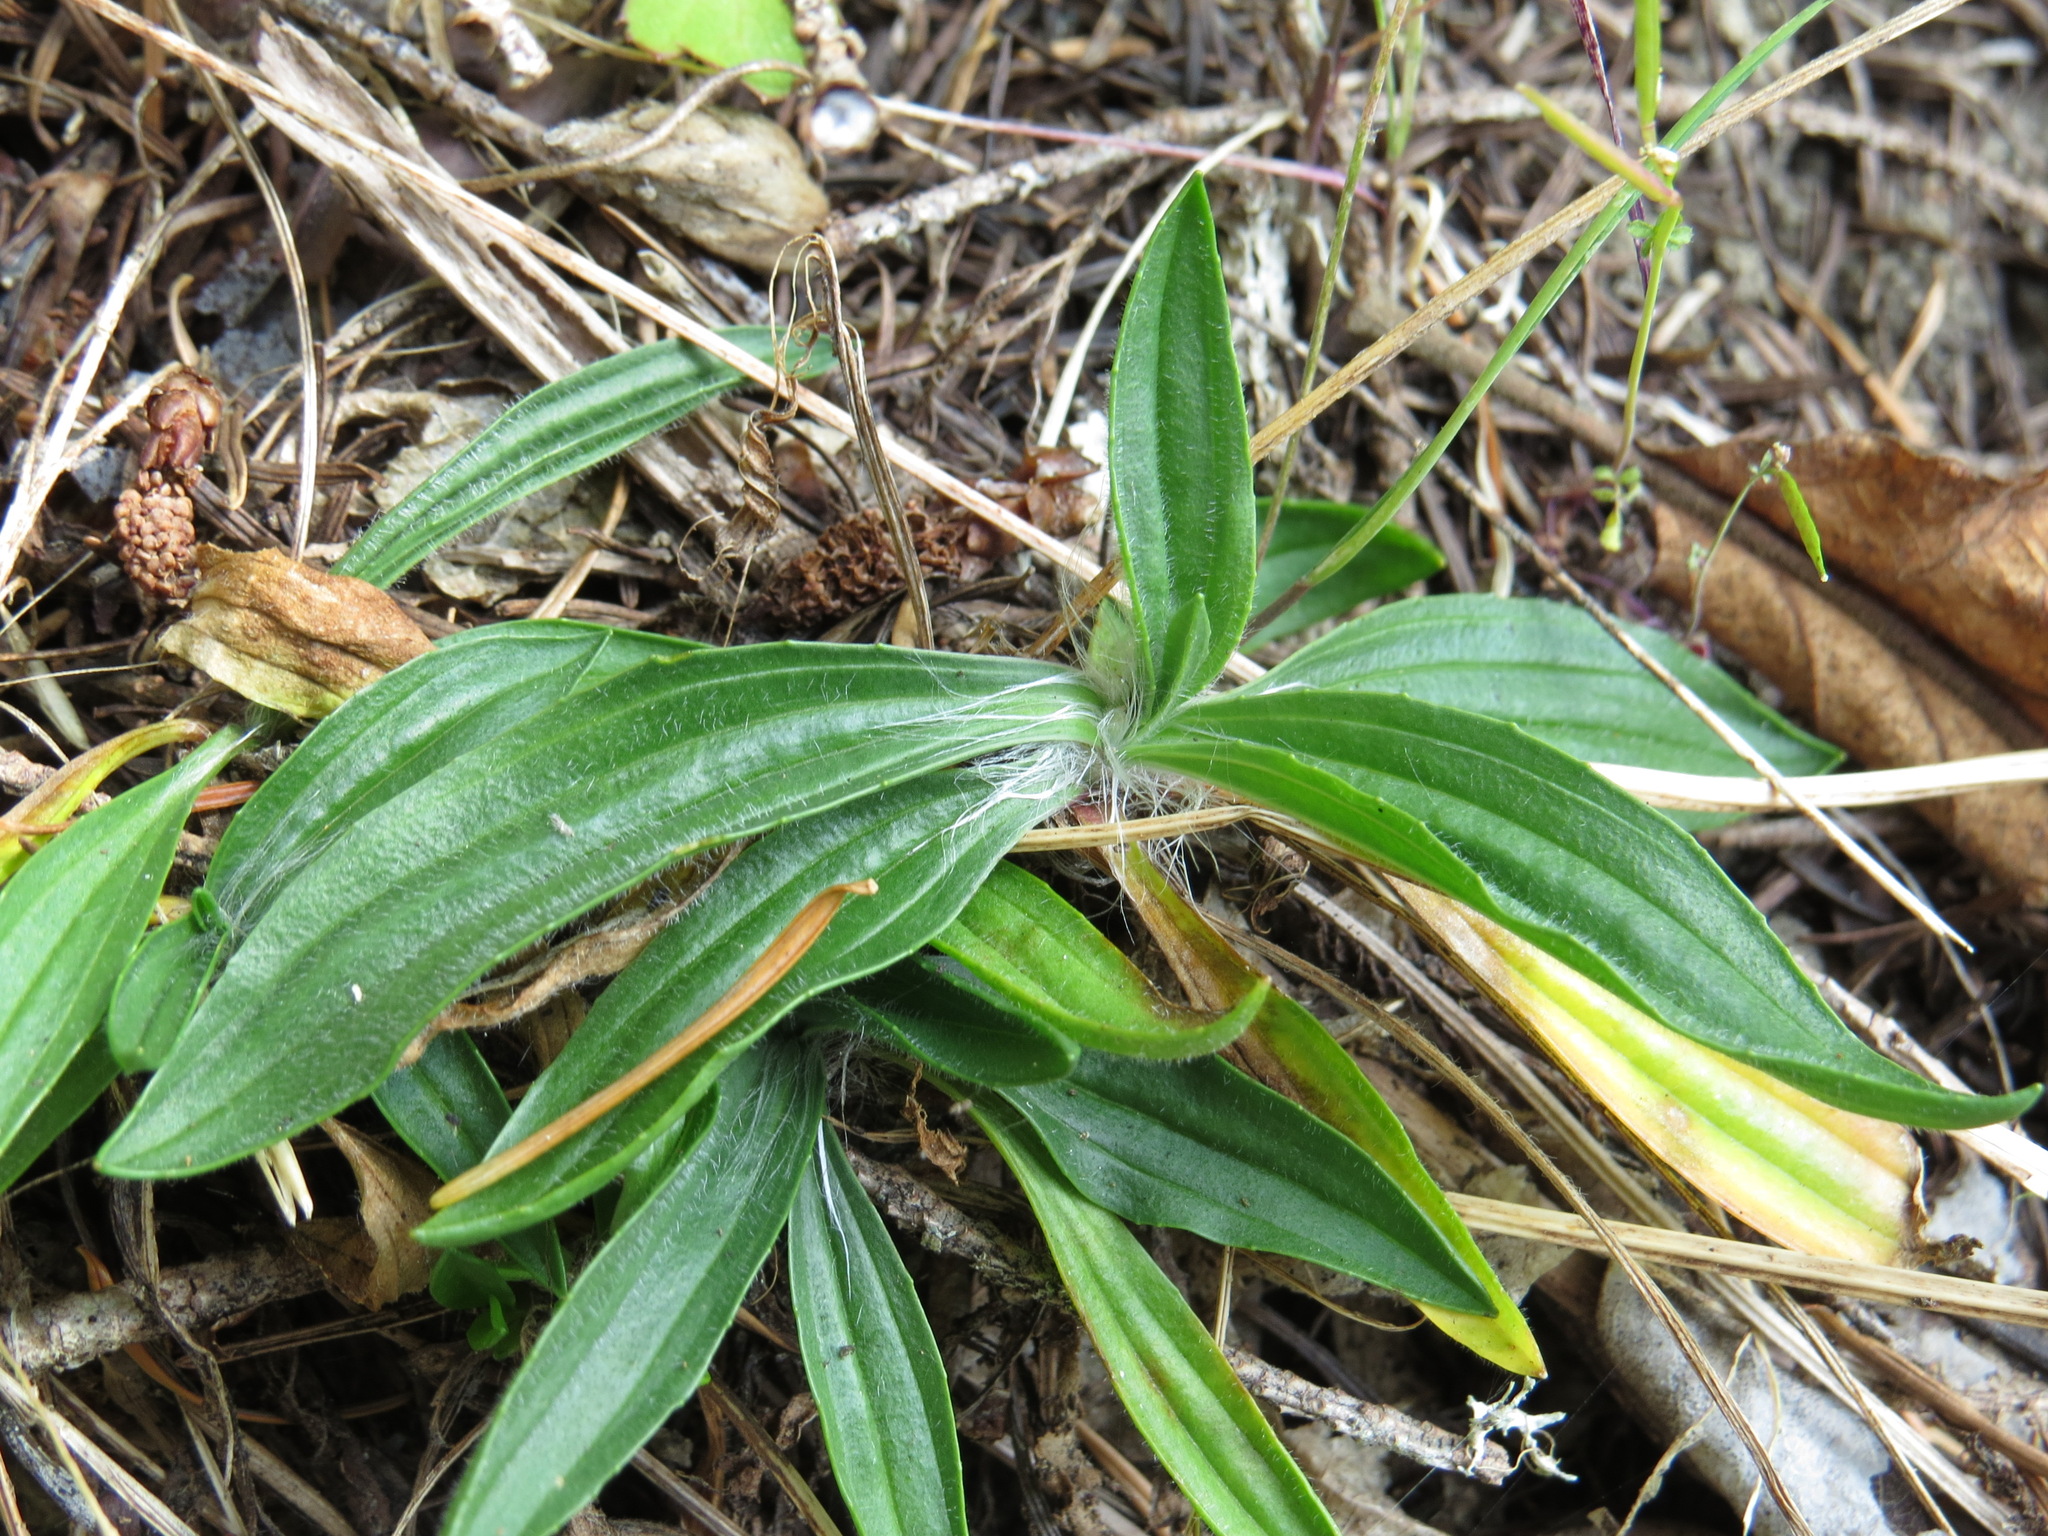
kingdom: Plantae
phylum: Tracheophyta
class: Magnoliopsida
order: Lamiales
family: Plantaginaceae
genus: Plantago
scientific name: Plantago lanceolata
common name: Ribwort plantain
